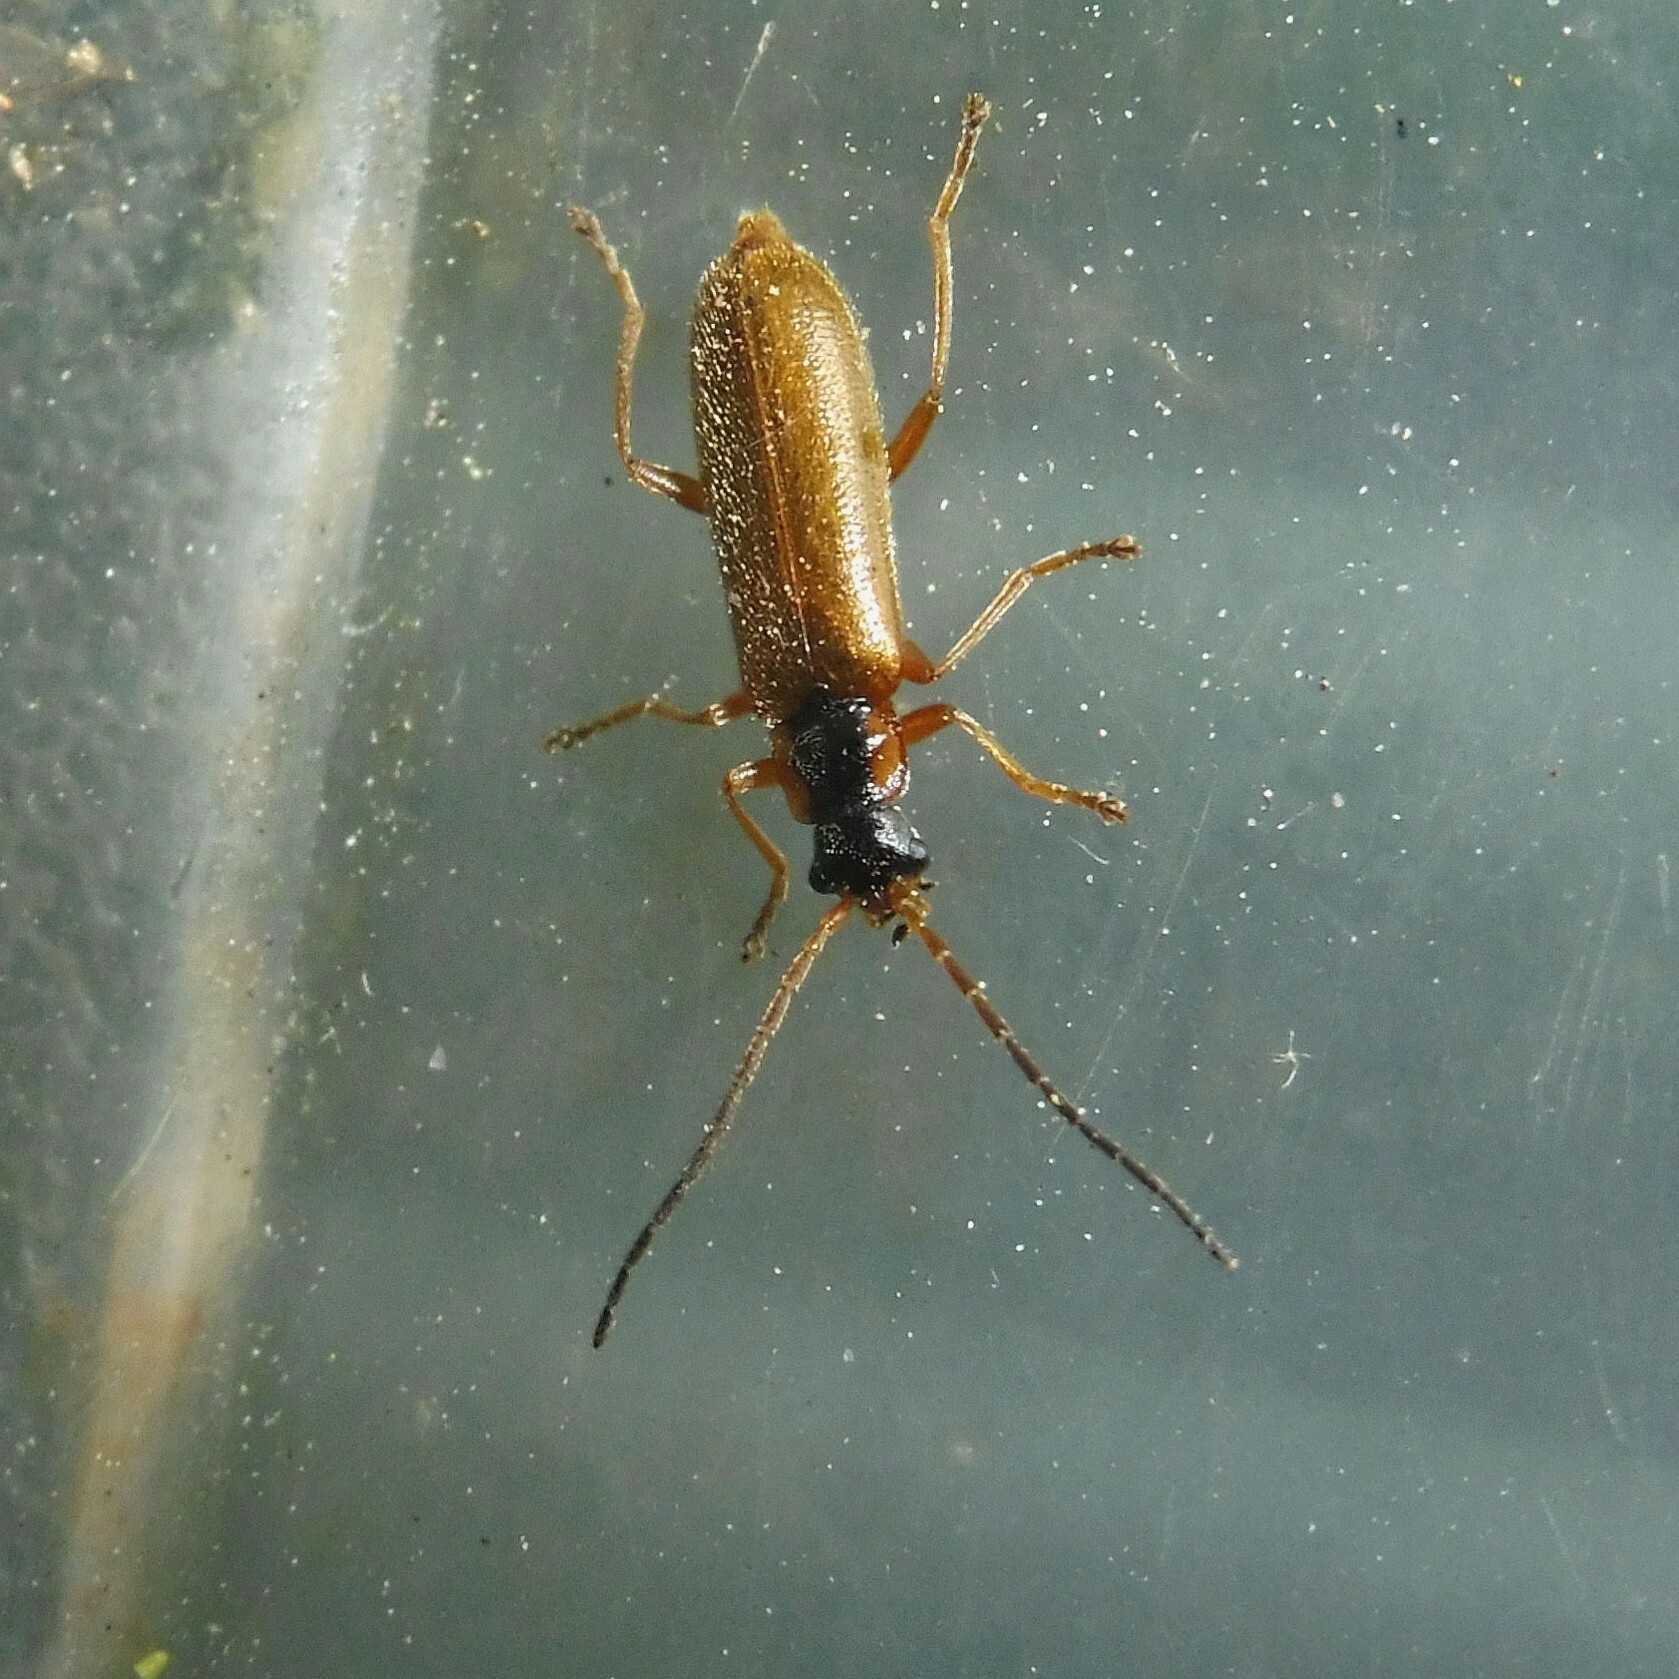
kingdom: Animalia
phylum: Arthropoda
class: Insecta
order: Coleoptera
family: Cantharidae
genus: Rhagonycha
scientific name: Rhagonycha testacea
